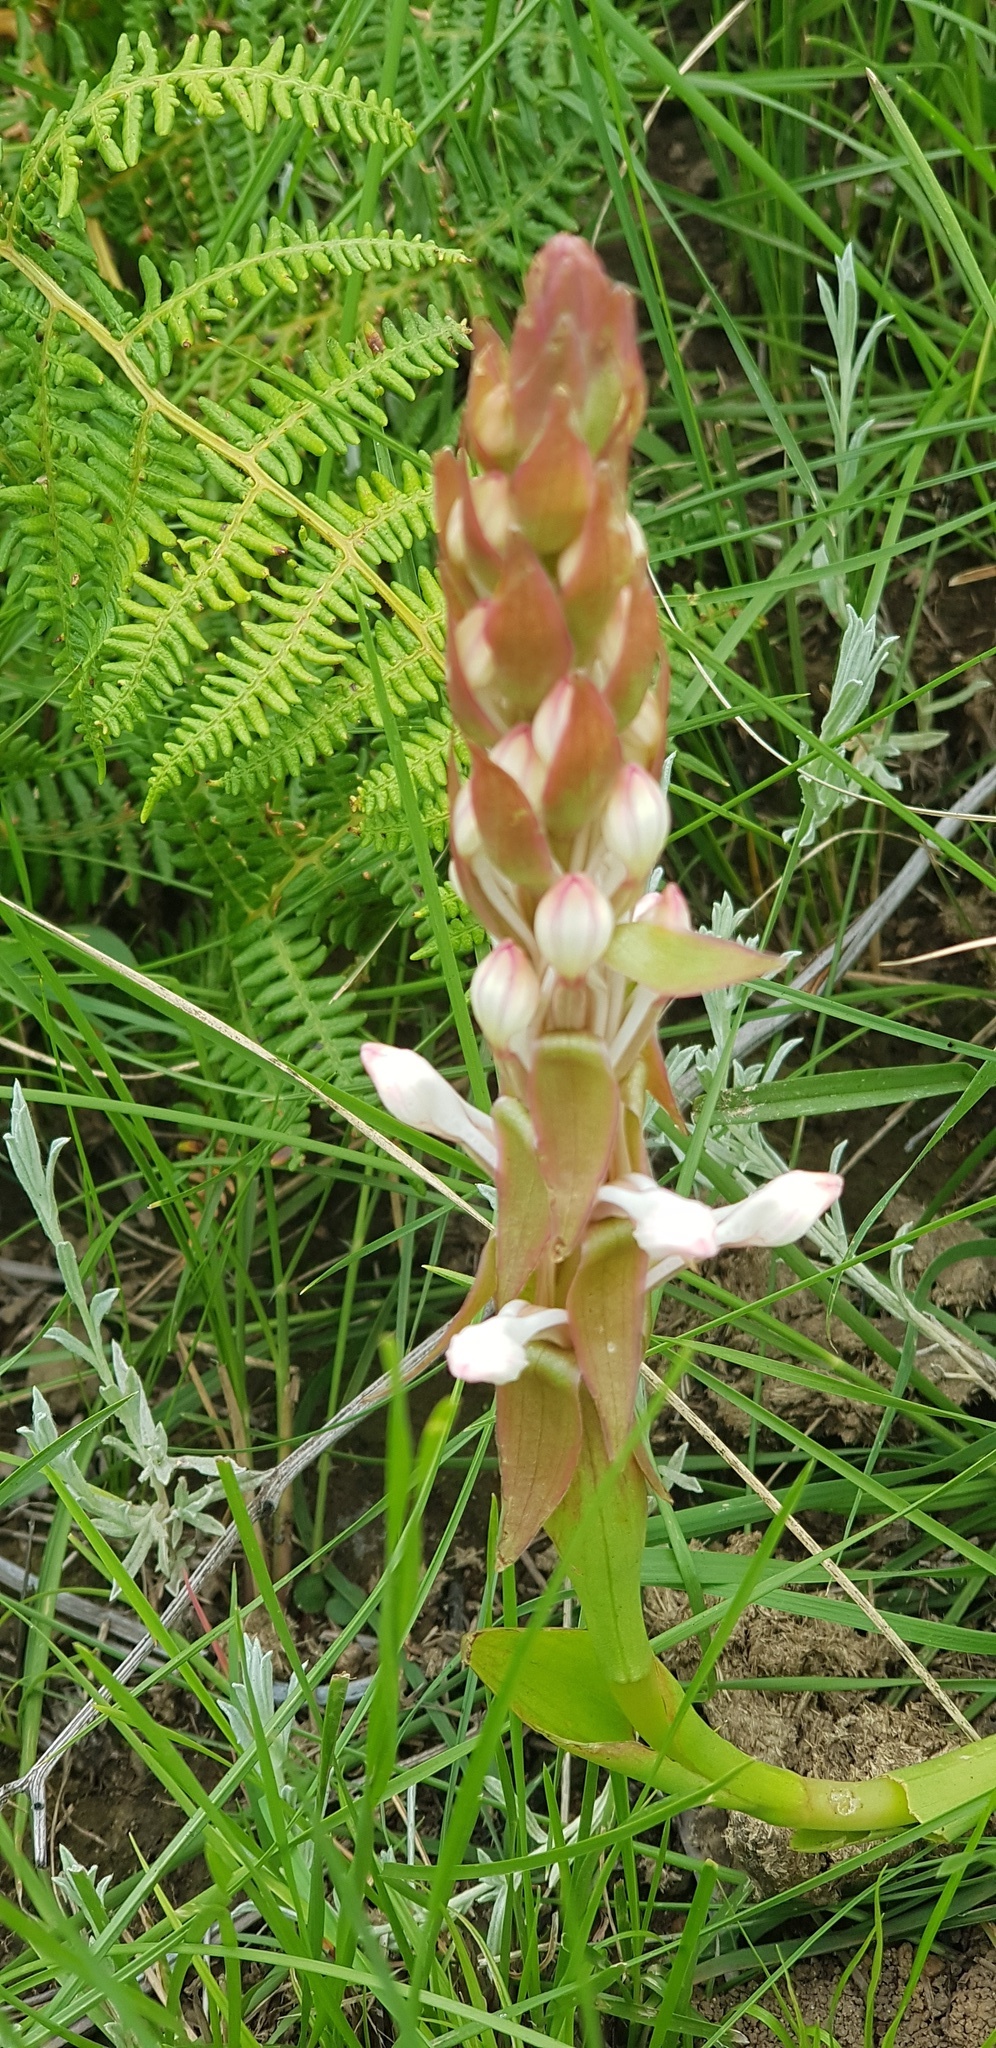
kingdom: Plantae
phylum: Tracheophyta
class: Liliopsida
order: Asparagales
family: Orchidaceae
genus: Satyrium
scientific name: Satyrium longicauda
